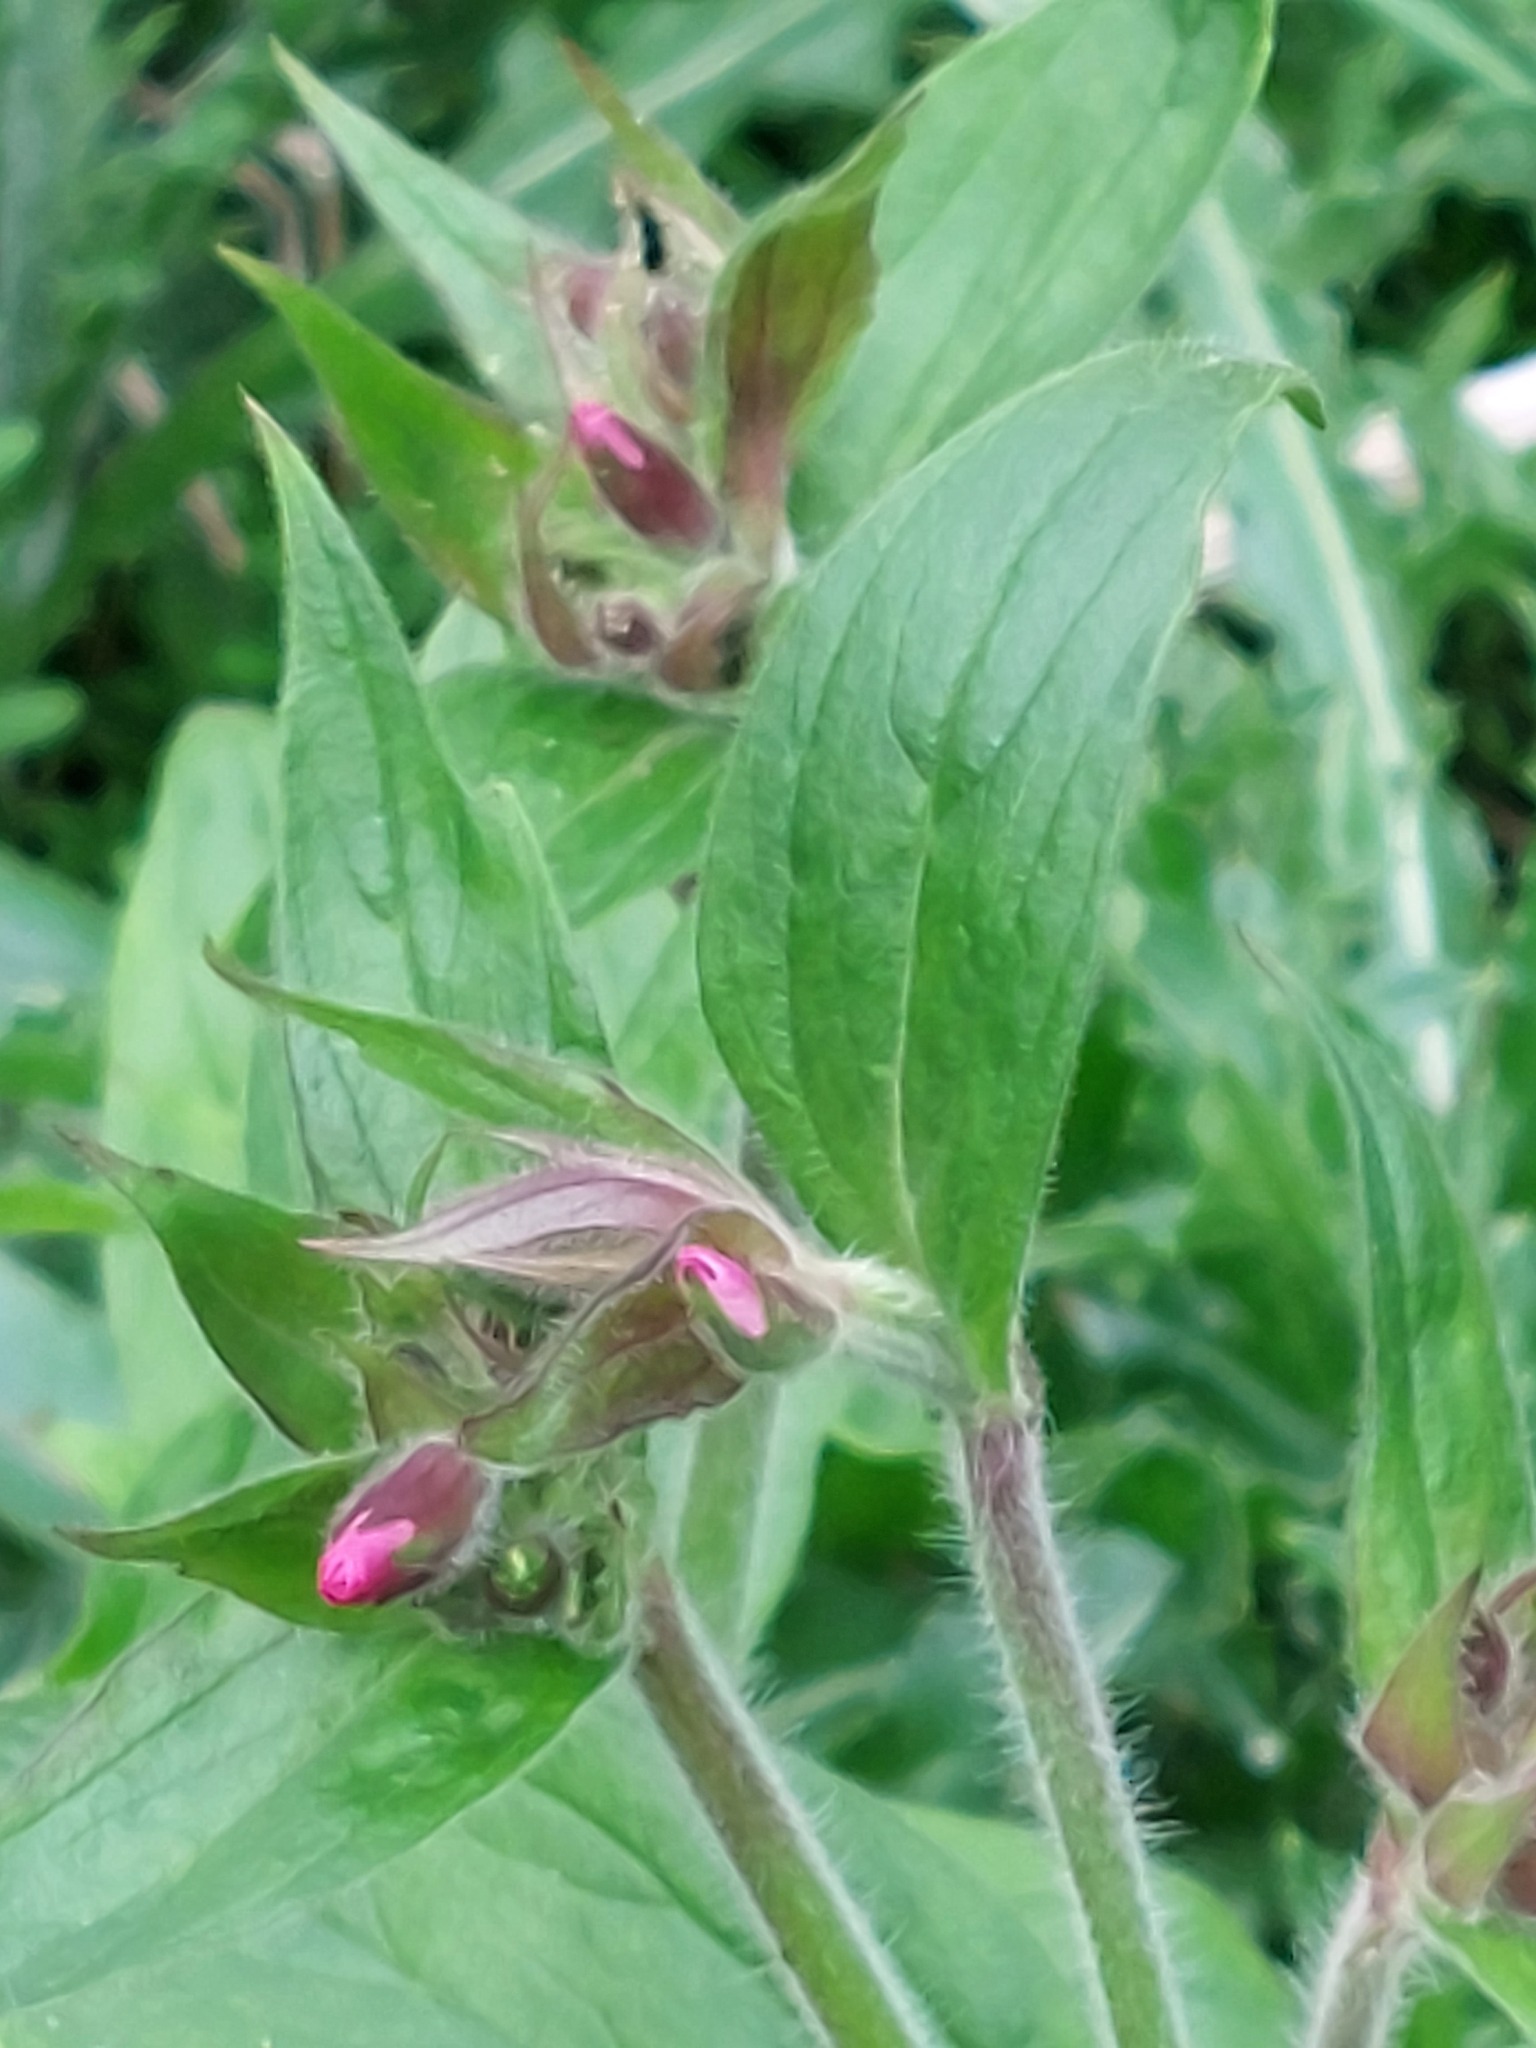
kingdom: Plantae
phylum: Tracheophyta
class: Magnoliopsida
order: Caryophyllales
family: Caryophyllaceae
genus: Silene
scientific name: Silene dioica
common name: Red campion
